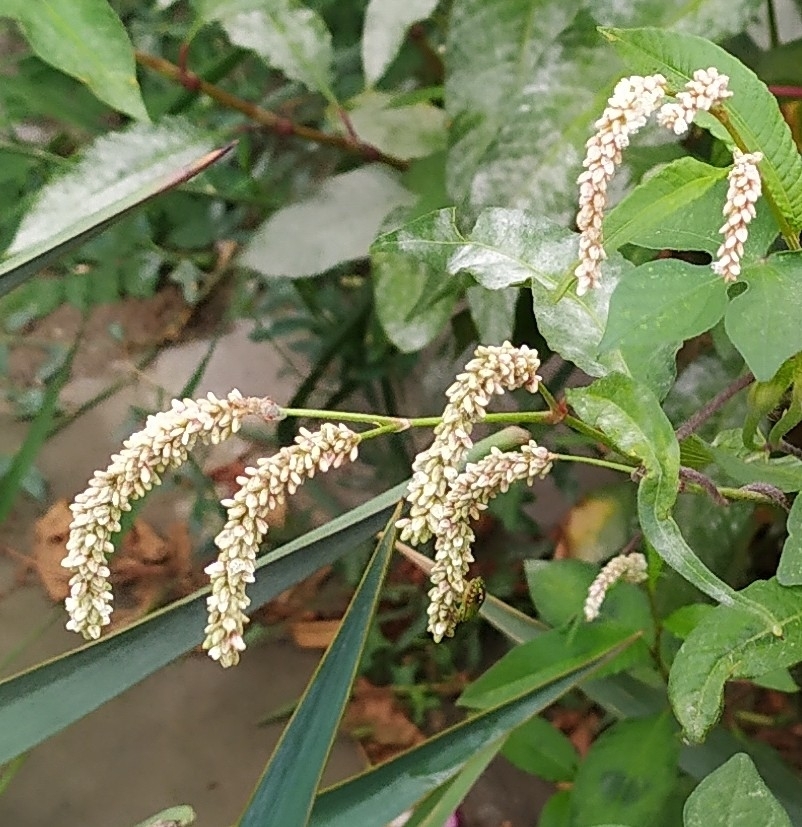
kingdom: Plantae
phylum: Tracheophyta
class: Magnoliopsida
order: Caryophyllales
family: Polygonaceae
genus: Persicaria
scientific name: Persicaria lapathifolia
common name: Curlytop knotweed
